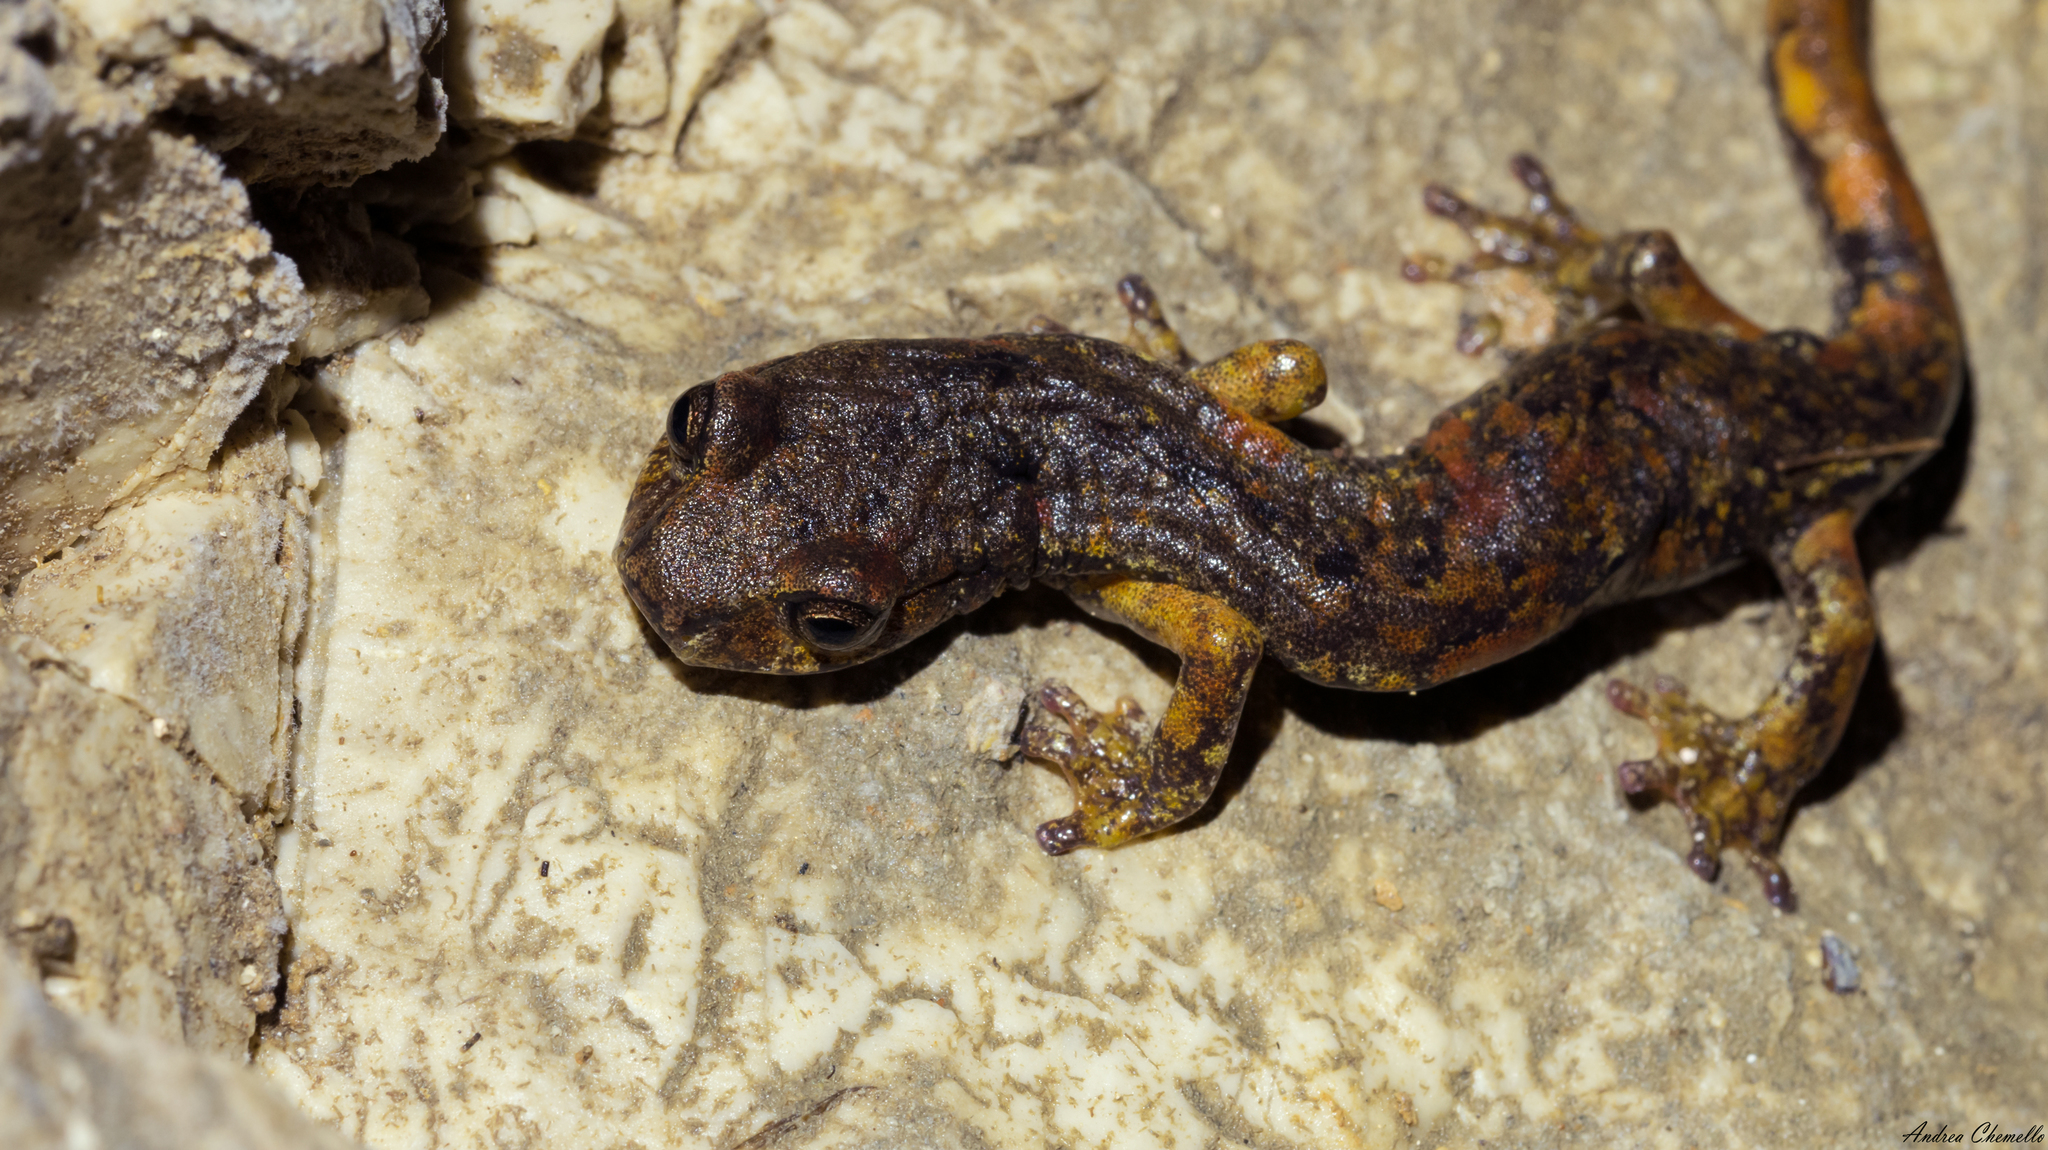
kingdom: Animalia
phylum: Chordata
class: Amphibia
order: Caudata
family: Plethodontidae
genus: Speleomantes
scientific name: Speleomantes italicus
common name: Italian cave salamander
